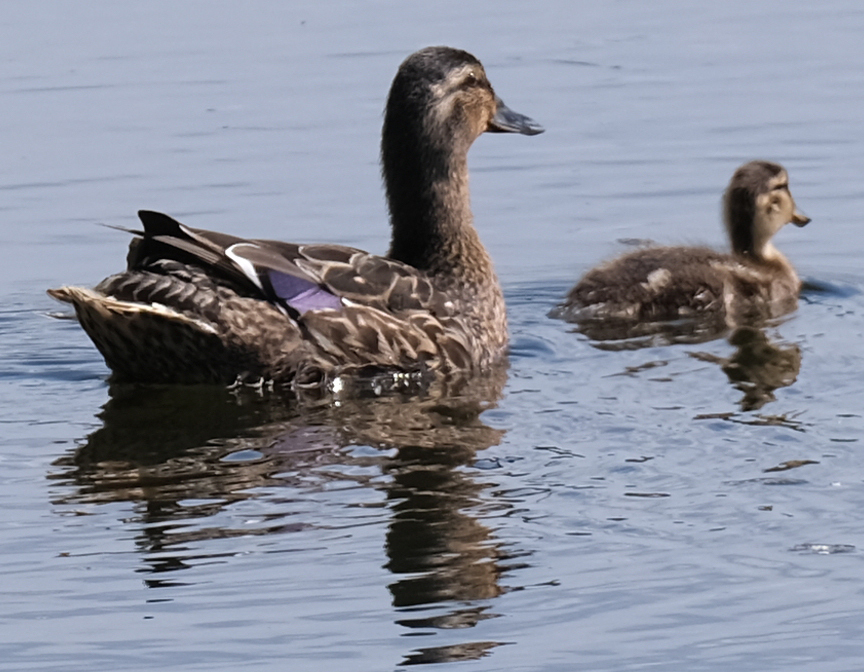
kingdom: Animalia
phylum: Chordata
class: Aves
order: Anseriformes
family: Anatidae
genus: Anas
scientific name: Anas platyrhynchos
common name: Mallard
